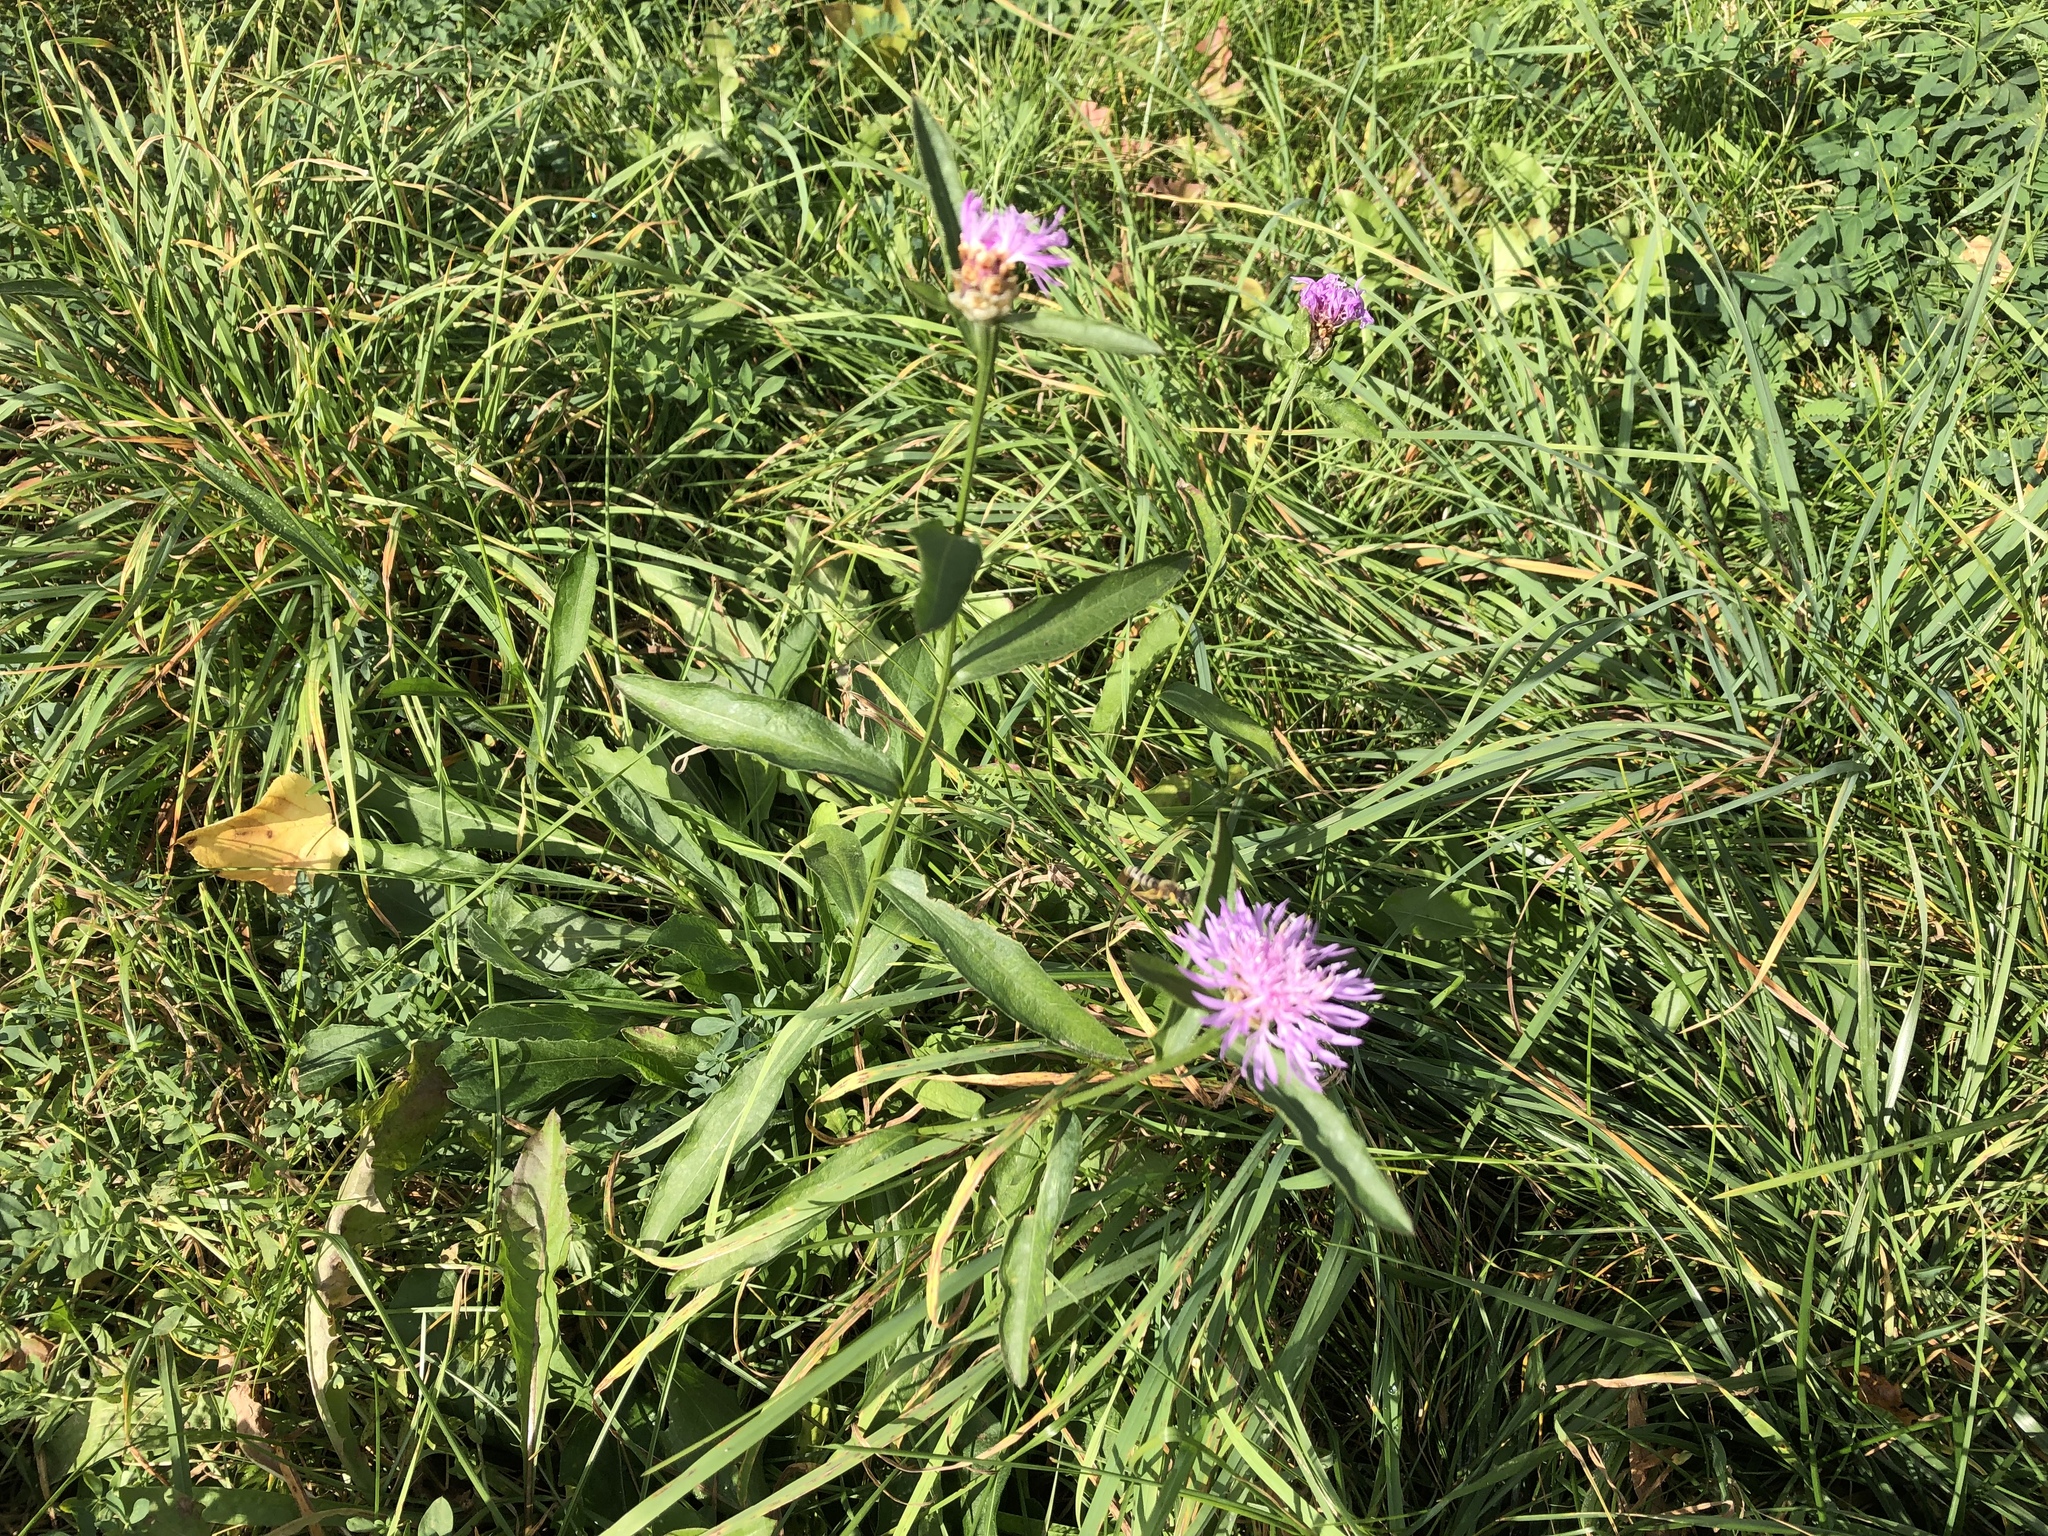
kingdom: Plantae
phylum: Tracheophyta
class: Magnoliopsida
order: Asterales
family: Asteraceae
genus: Centaurea
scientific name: Centaurea jacea
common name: Brown knapweed
